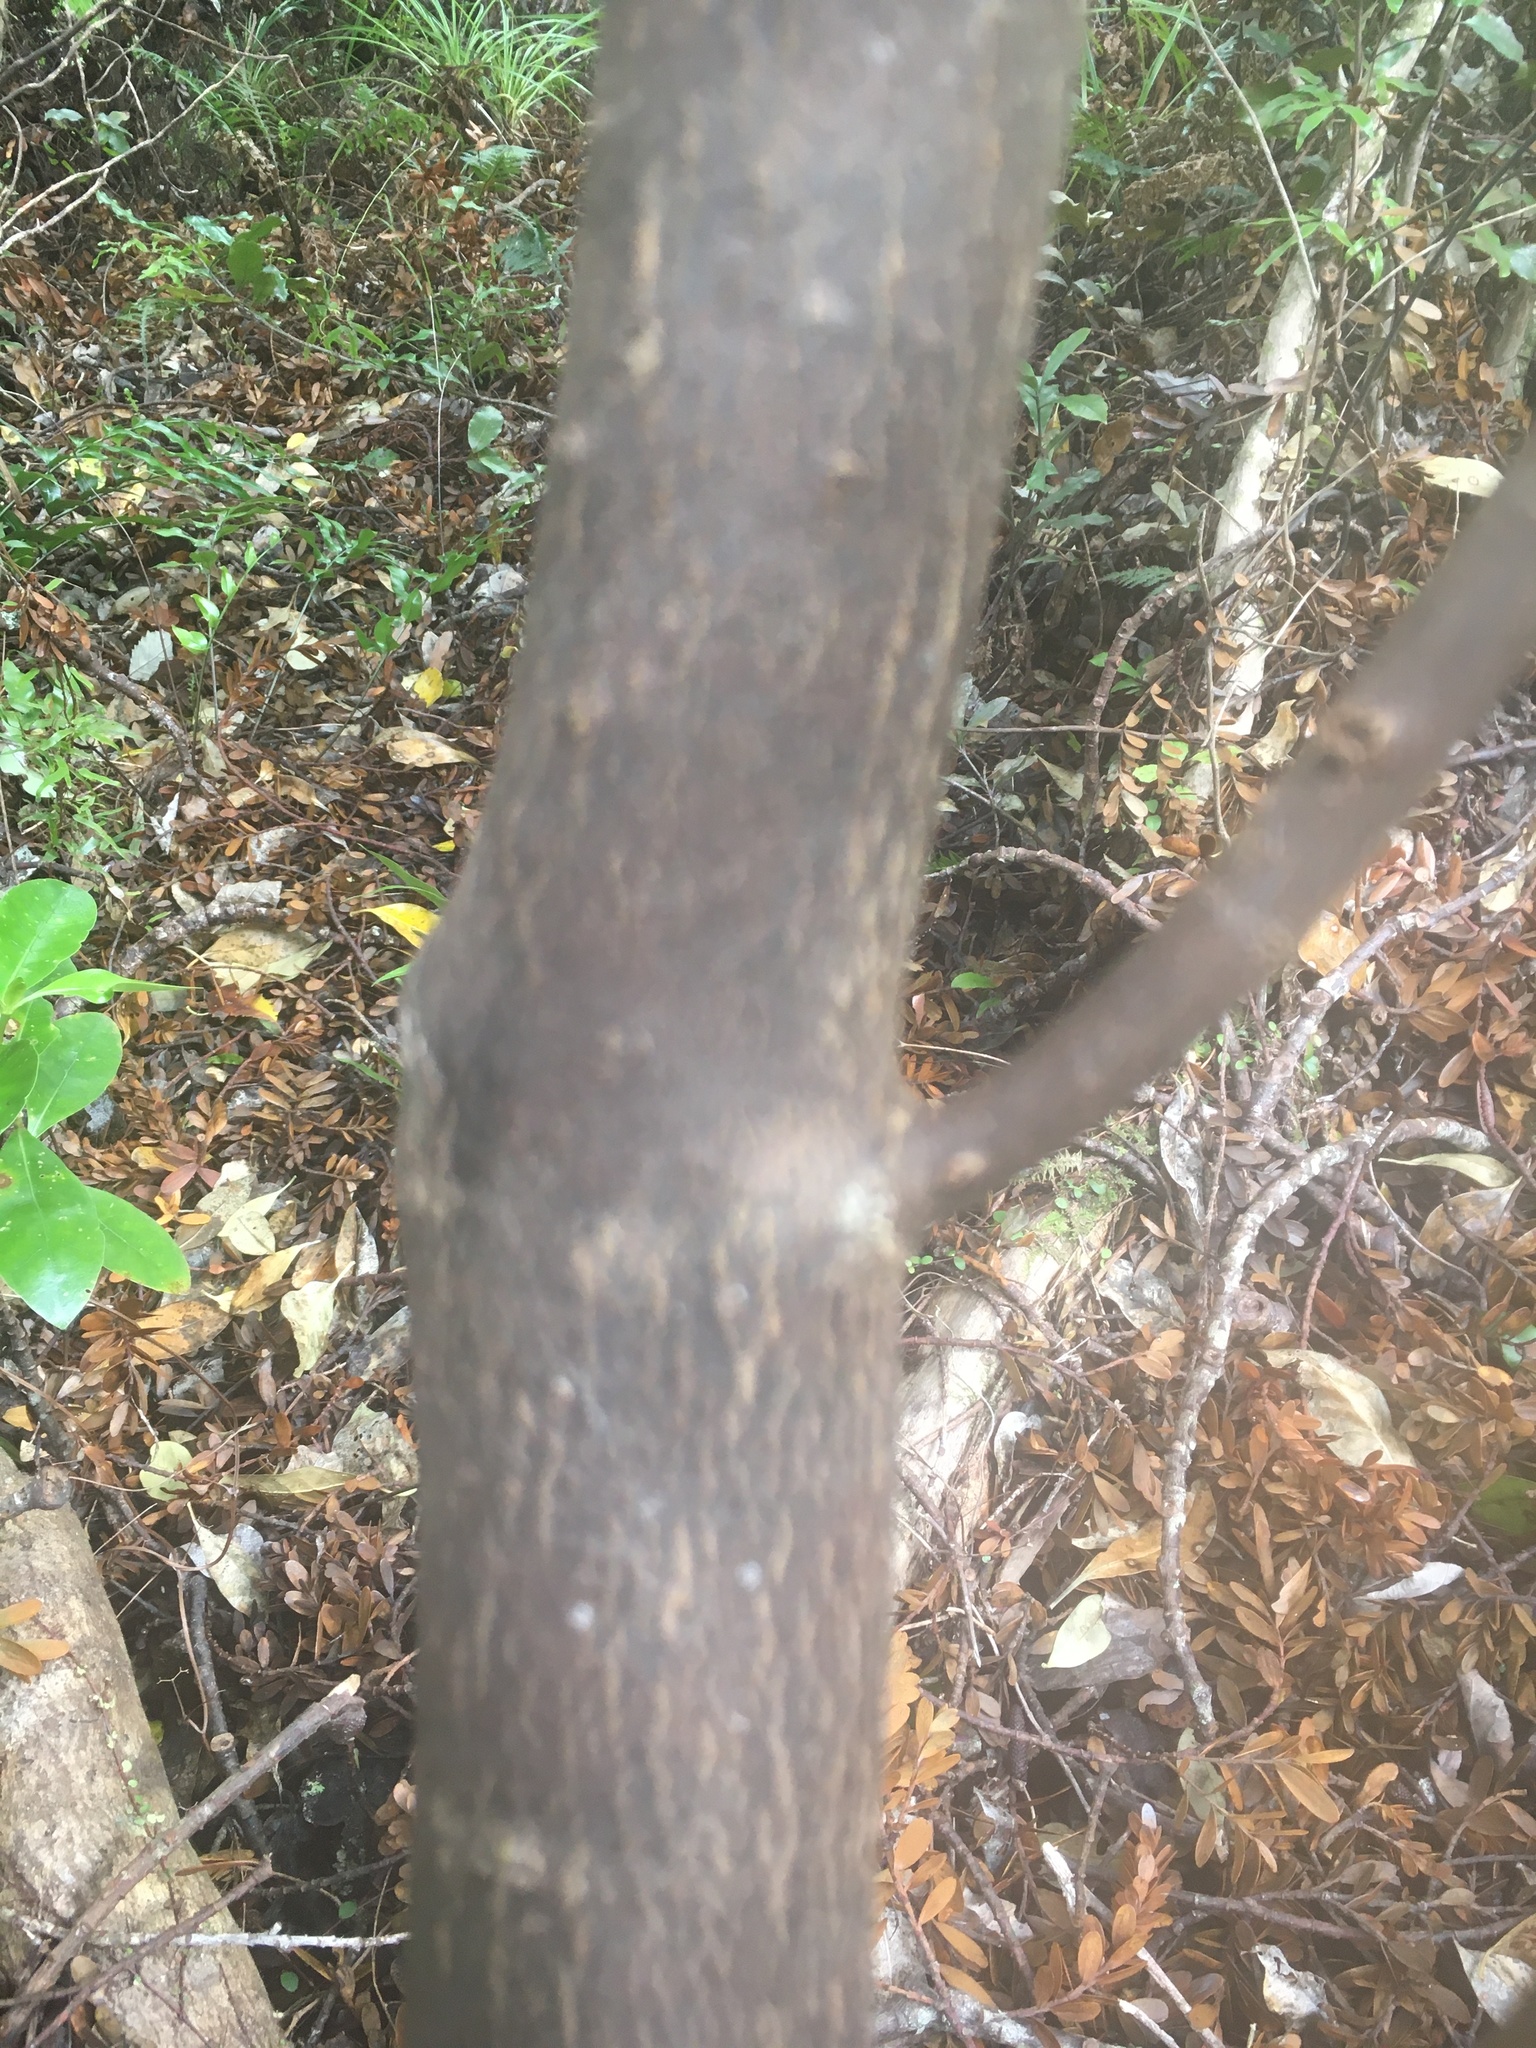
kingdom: Plantae
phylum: Tracheophyta
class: Magnoliopsida
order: Gentianales
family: Rubiaceae
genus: Coprosma
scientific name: Coprosma lucida
